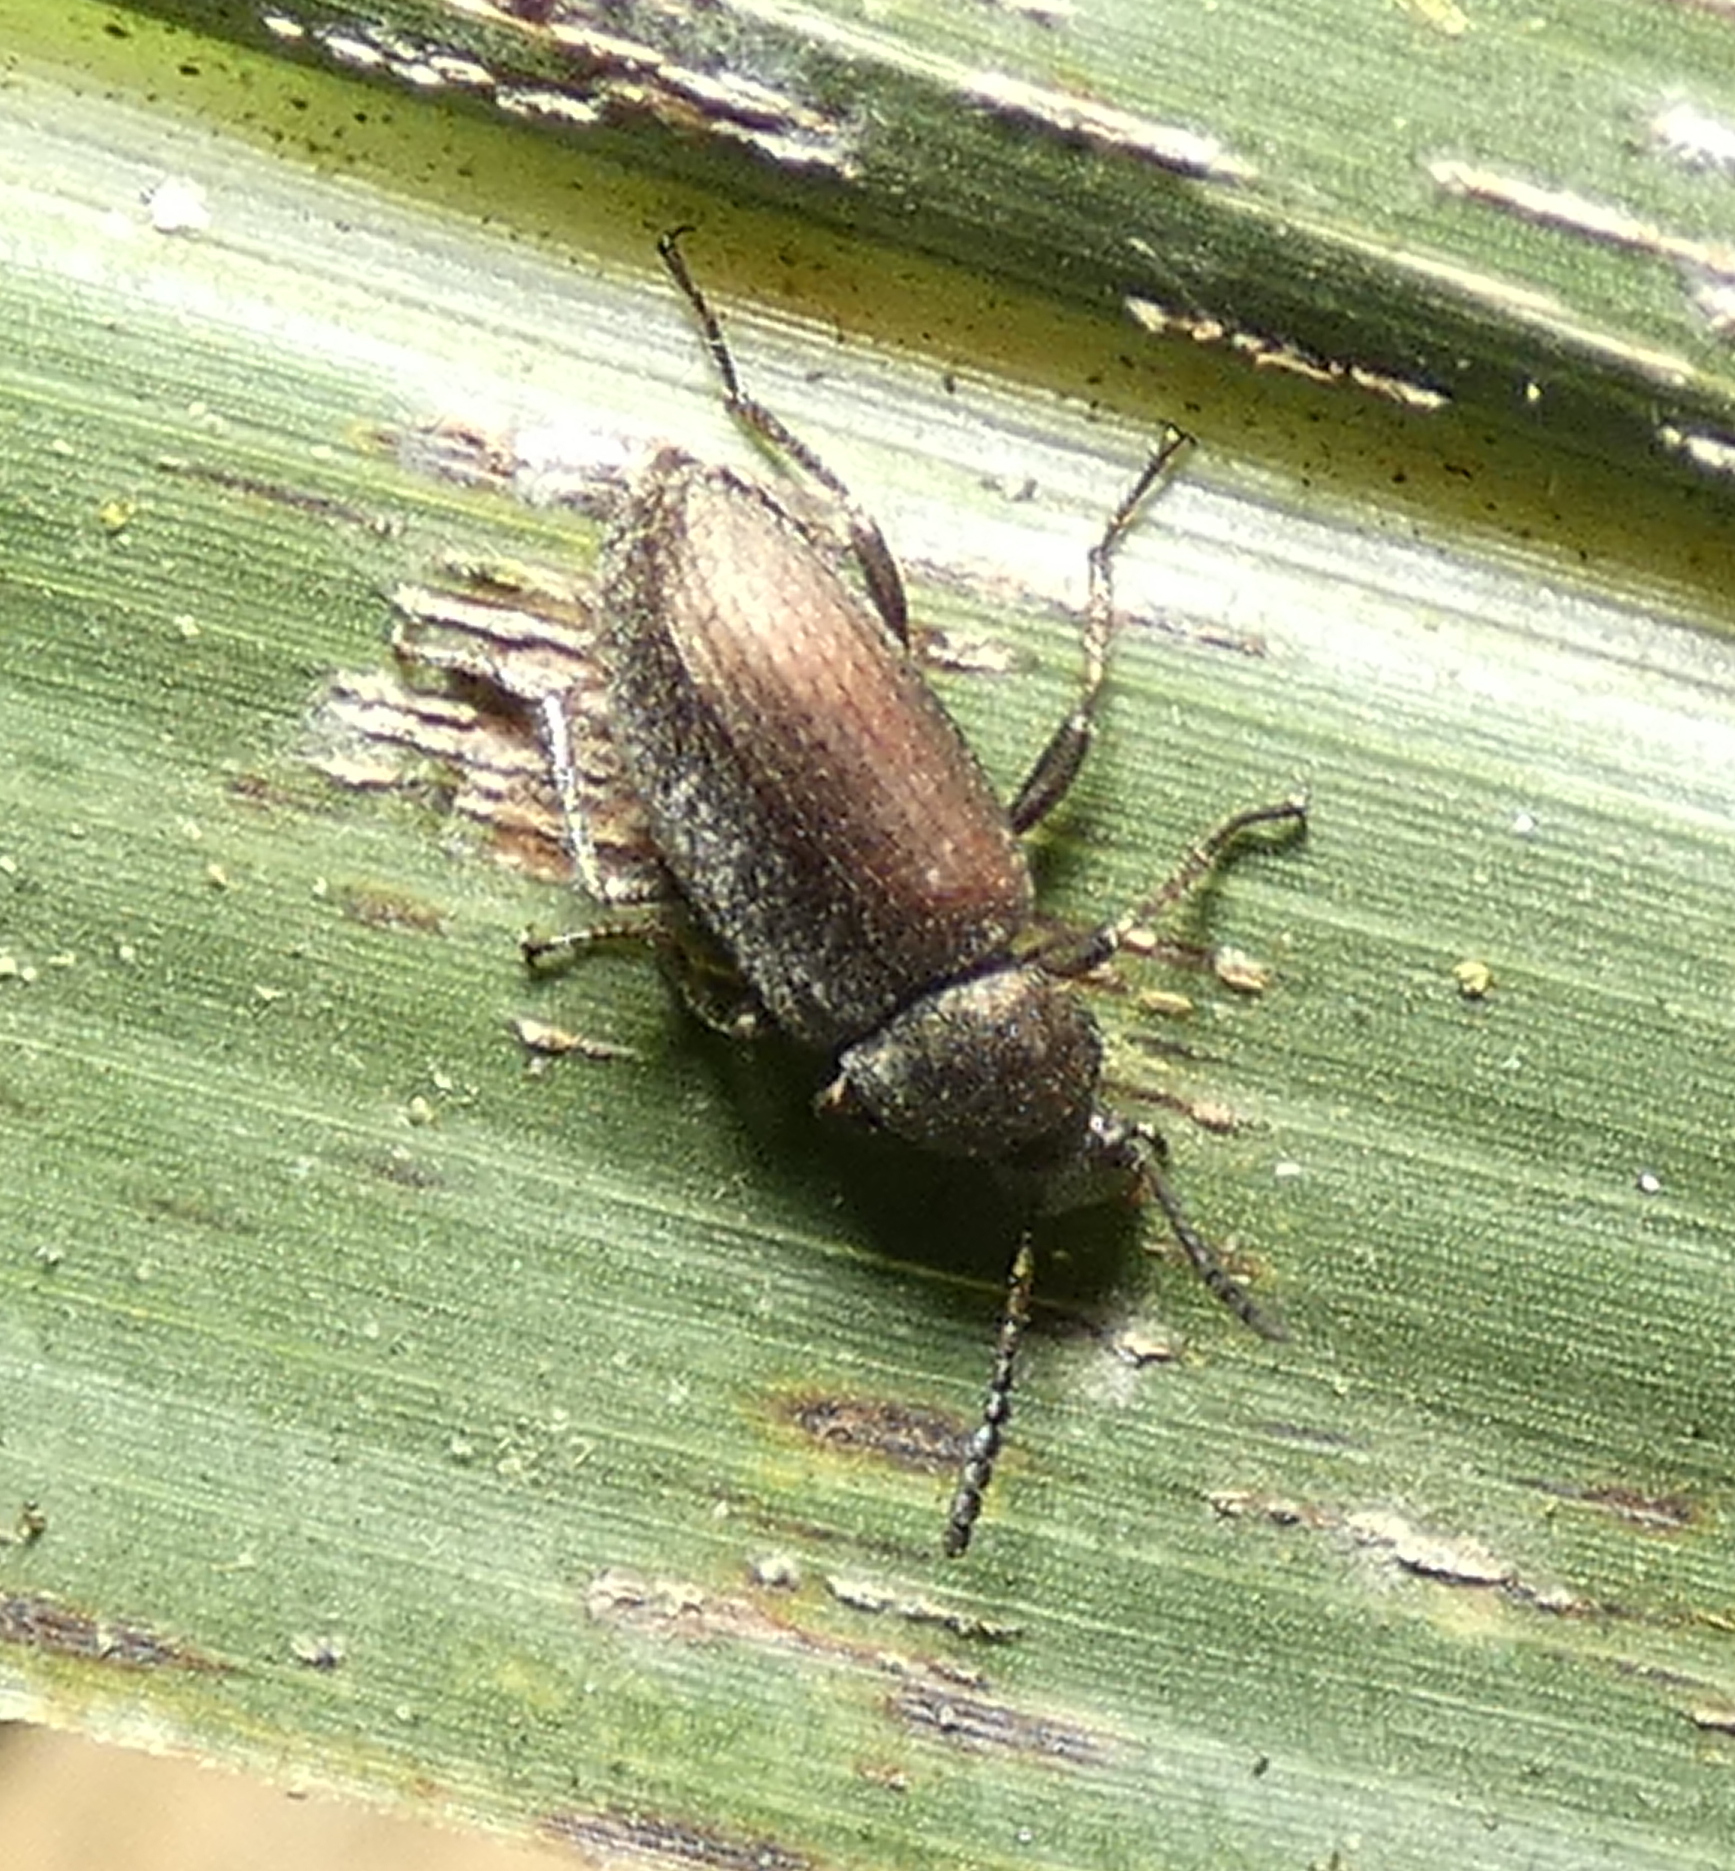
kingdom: Animalia
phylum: Arthropoda
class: Insecta
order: Coleoptera
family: Tenebrionidae
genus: Lagria
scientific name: Lagria villosa
